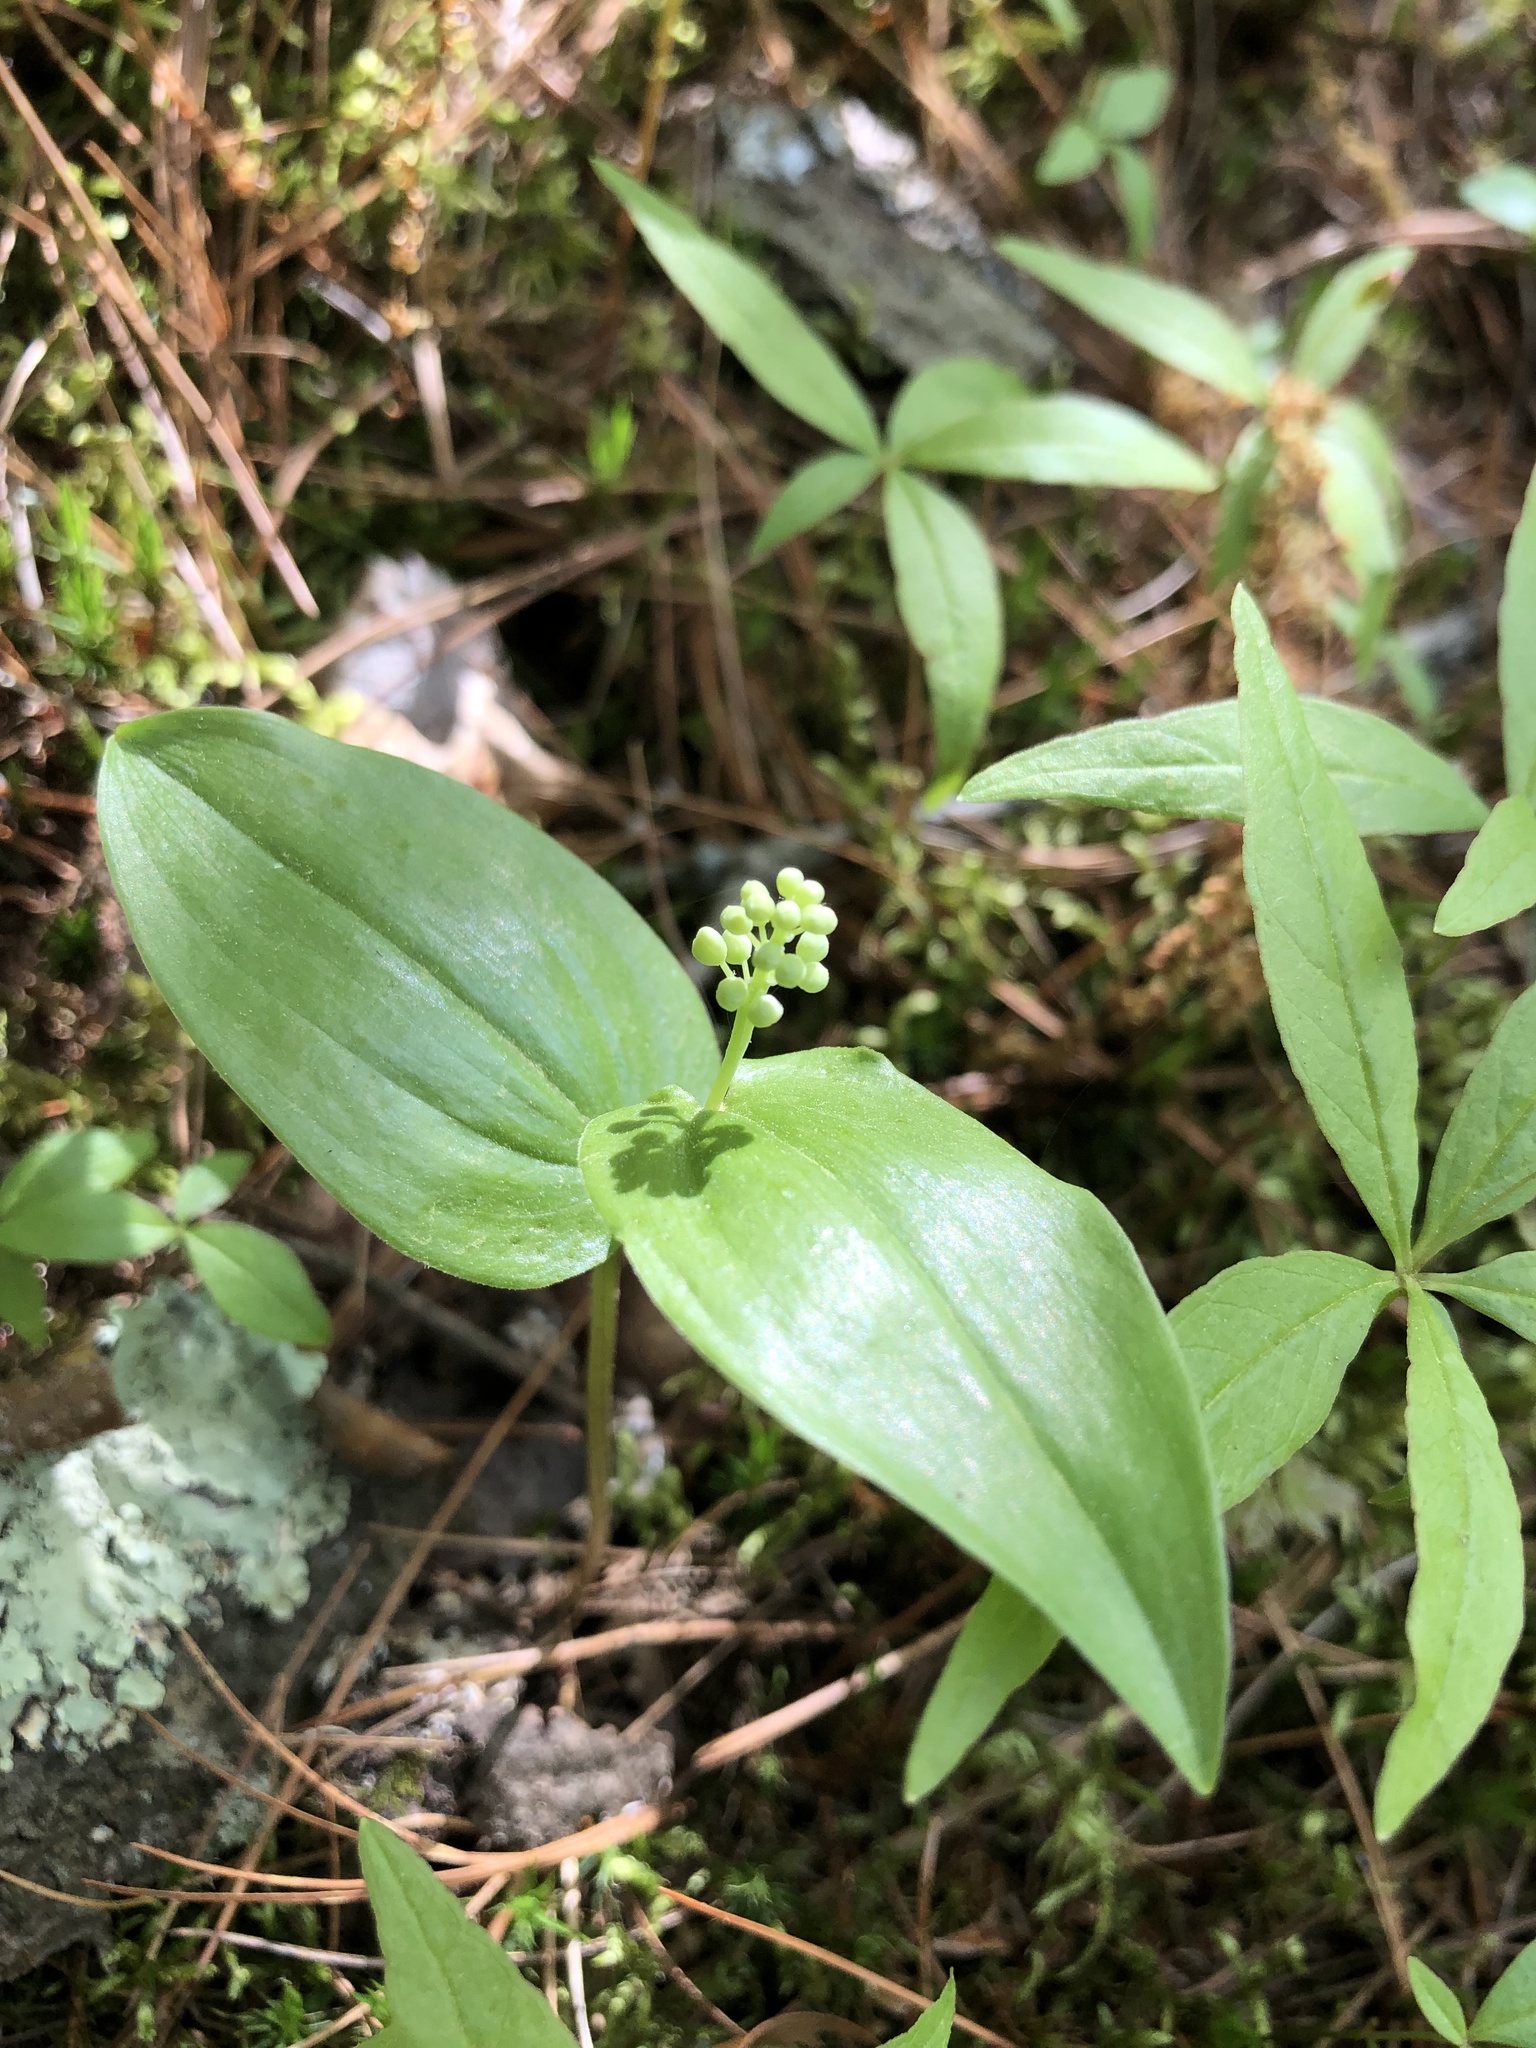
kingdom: Plantae
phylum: Tracheophyta
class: Liliopsida
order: Asparagales
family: Asparagaceae
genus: Maianthemum
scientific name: Maianthemum canadense
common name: False lily-of-the-valley
